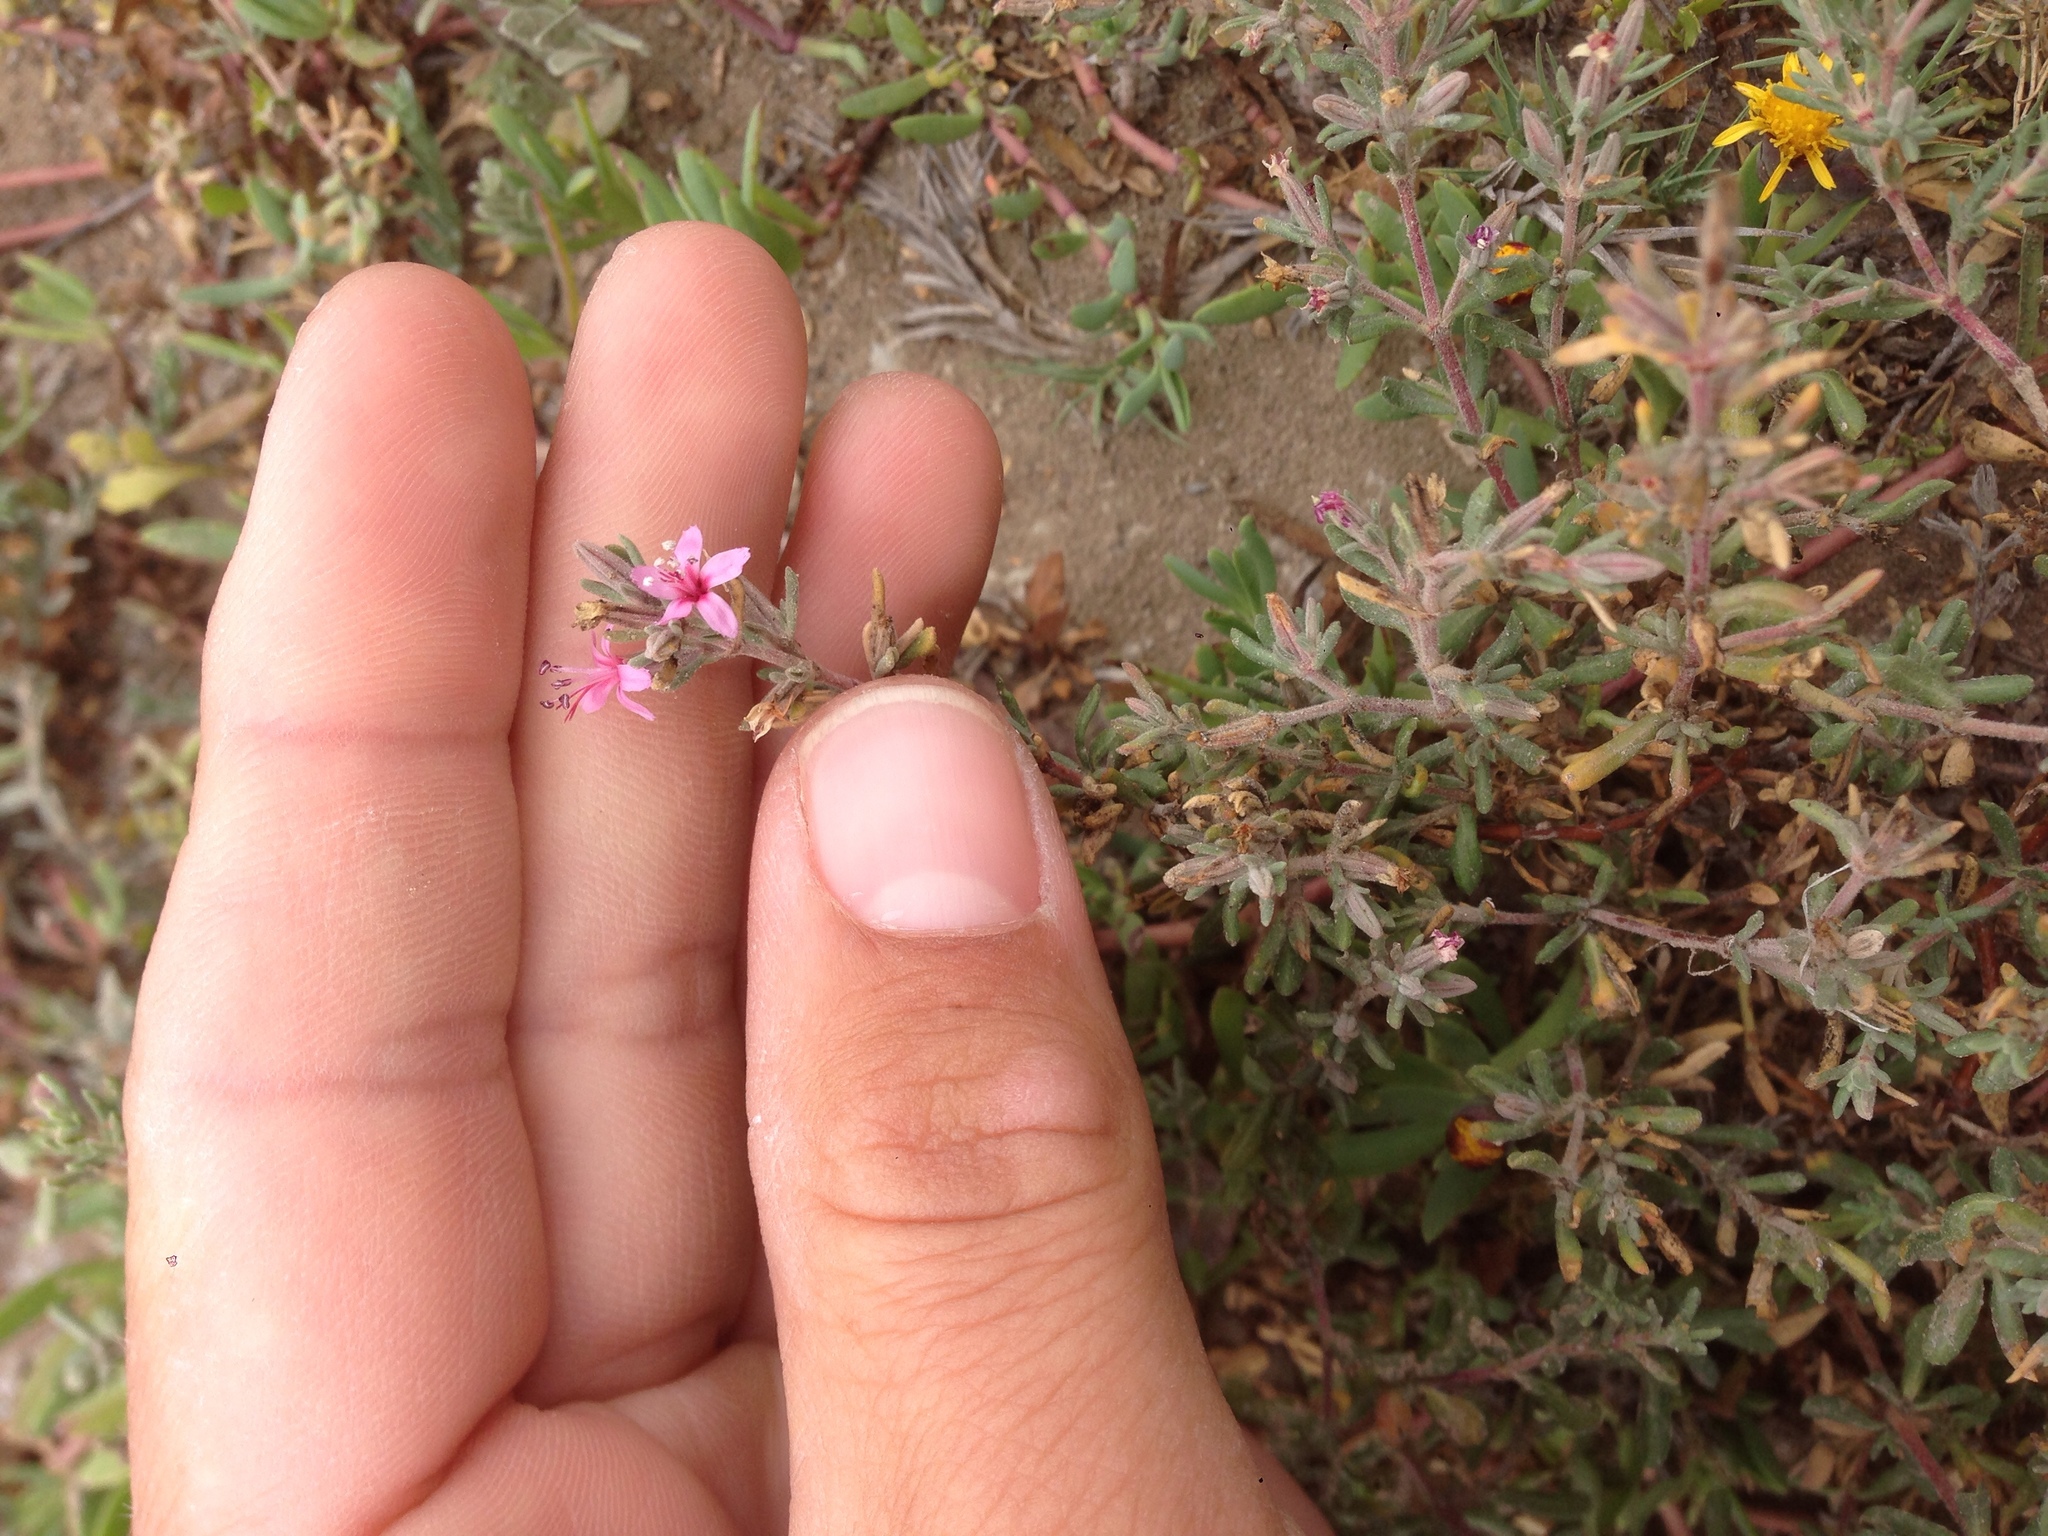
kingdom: Plantae
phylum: Tracheophyta
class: Magnoliopsida
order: Caryophyllales
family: Frankeniaceae
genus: Frankenia
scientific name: Frankenia salina
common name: Alkali seaheath
